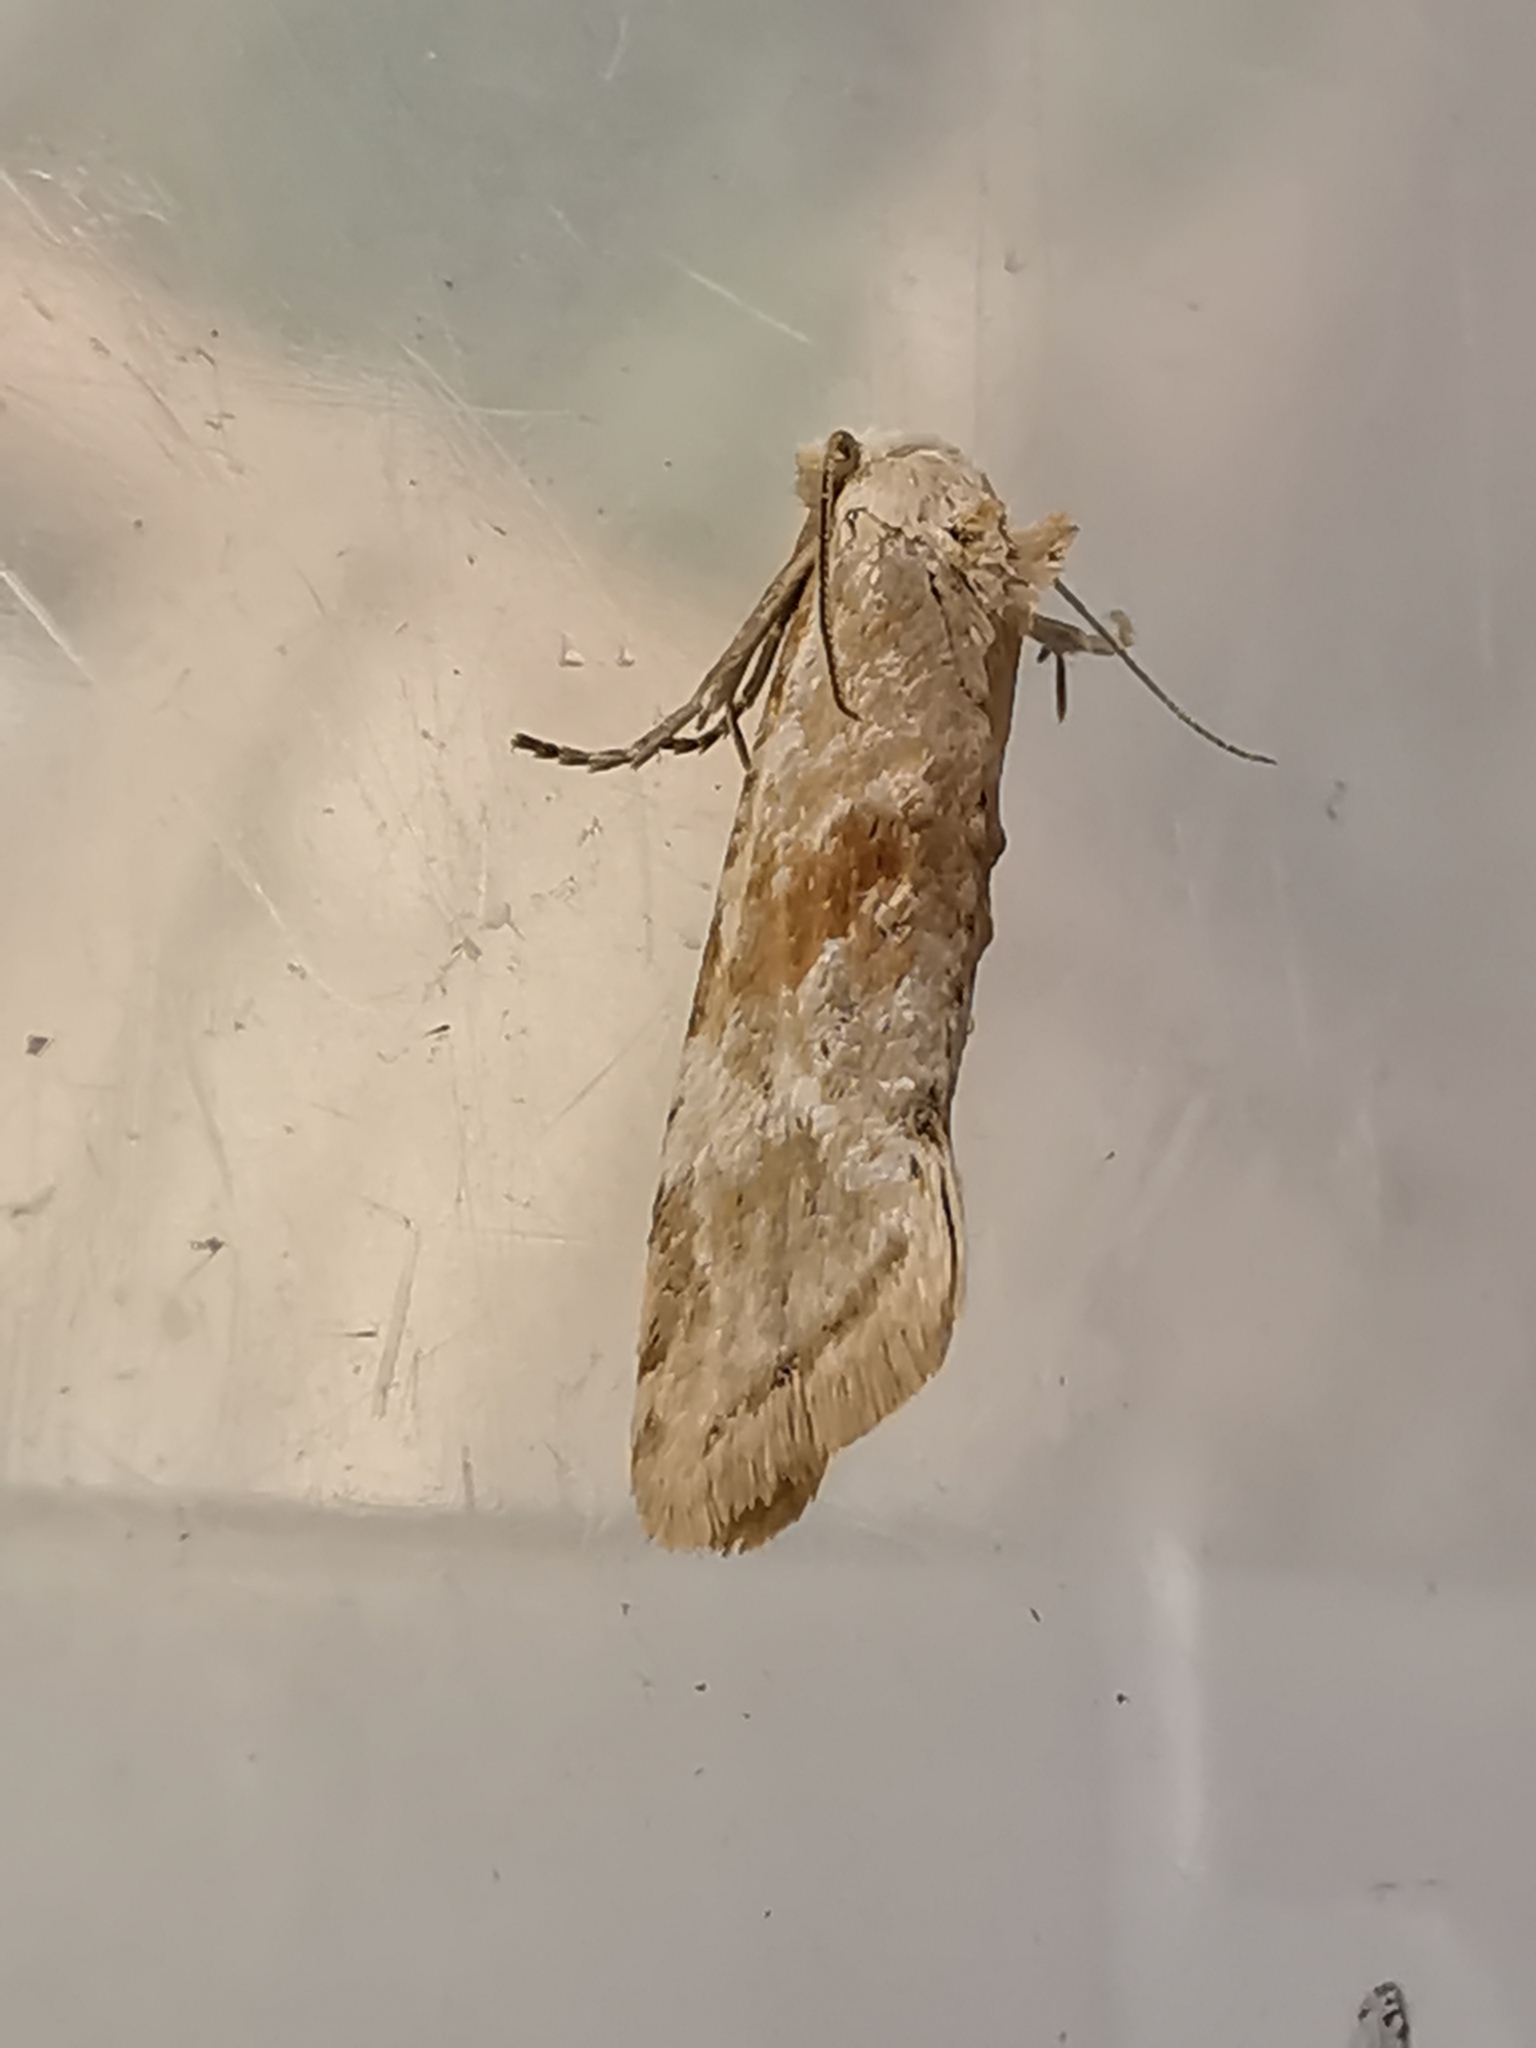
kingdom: Animalia
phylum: Arthropoda
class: Insecta
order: Lepidoptera
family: Tortricidae
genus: Cochylimorpha
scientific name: Cochylimorpha straminea
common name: Straw conch
